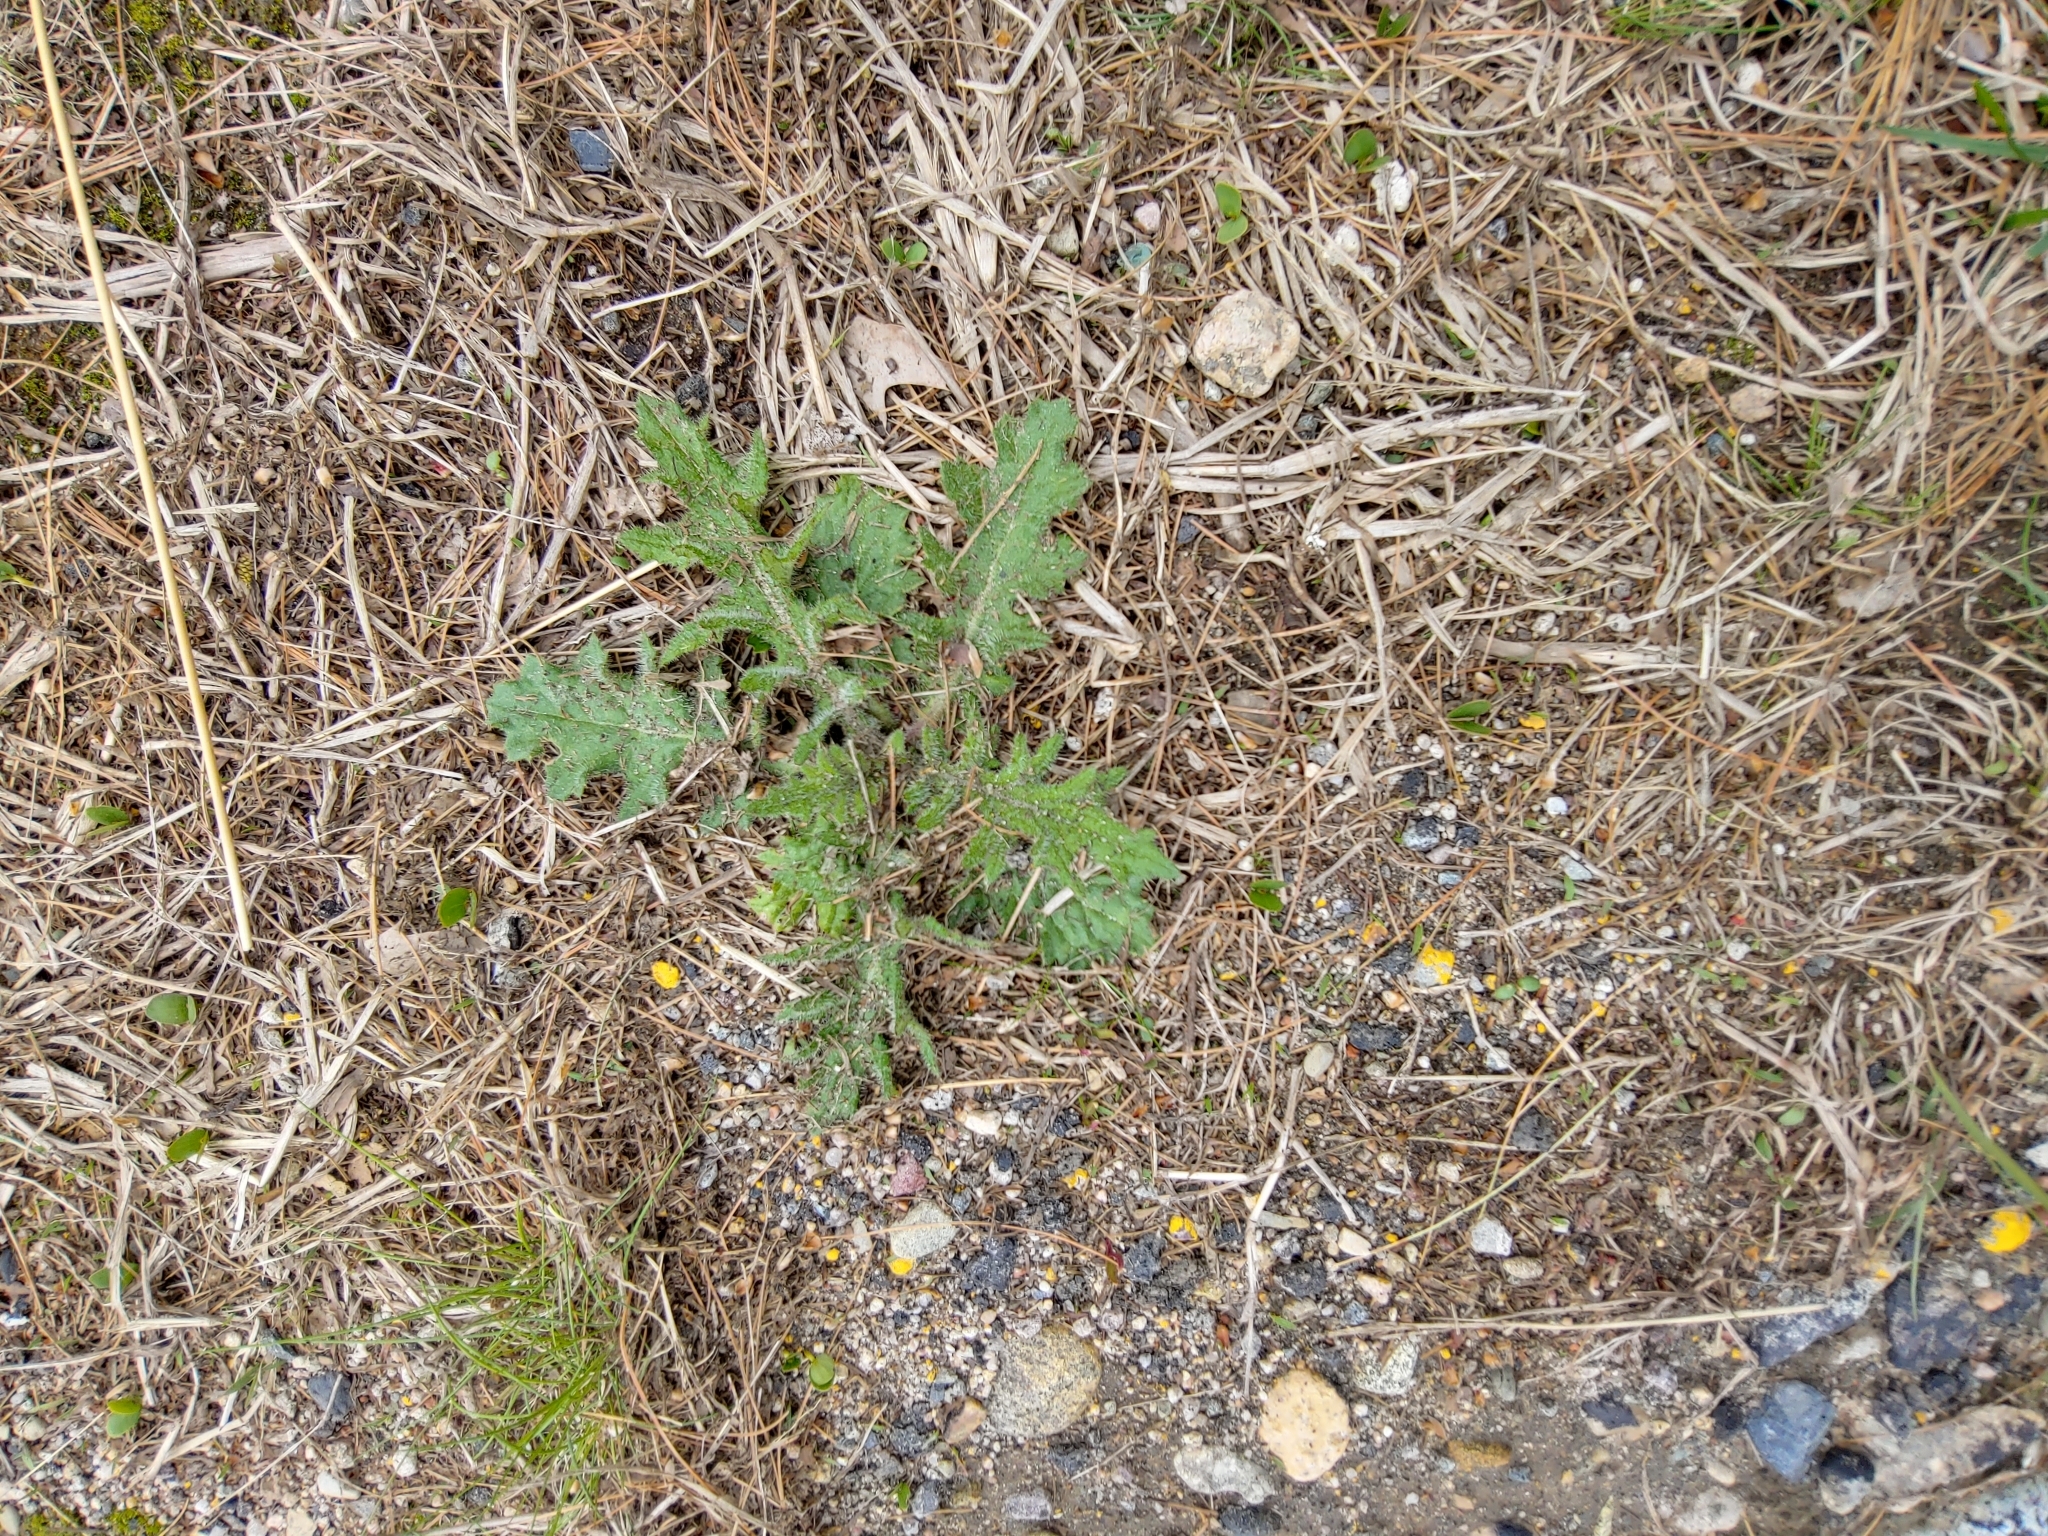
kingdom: Plantae
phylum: Tracheophyta
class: Magnoliopsida
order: Asterales
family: Asteraceae
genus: Cirsium
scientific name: Cirsium vulgare
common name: Bull thistle
